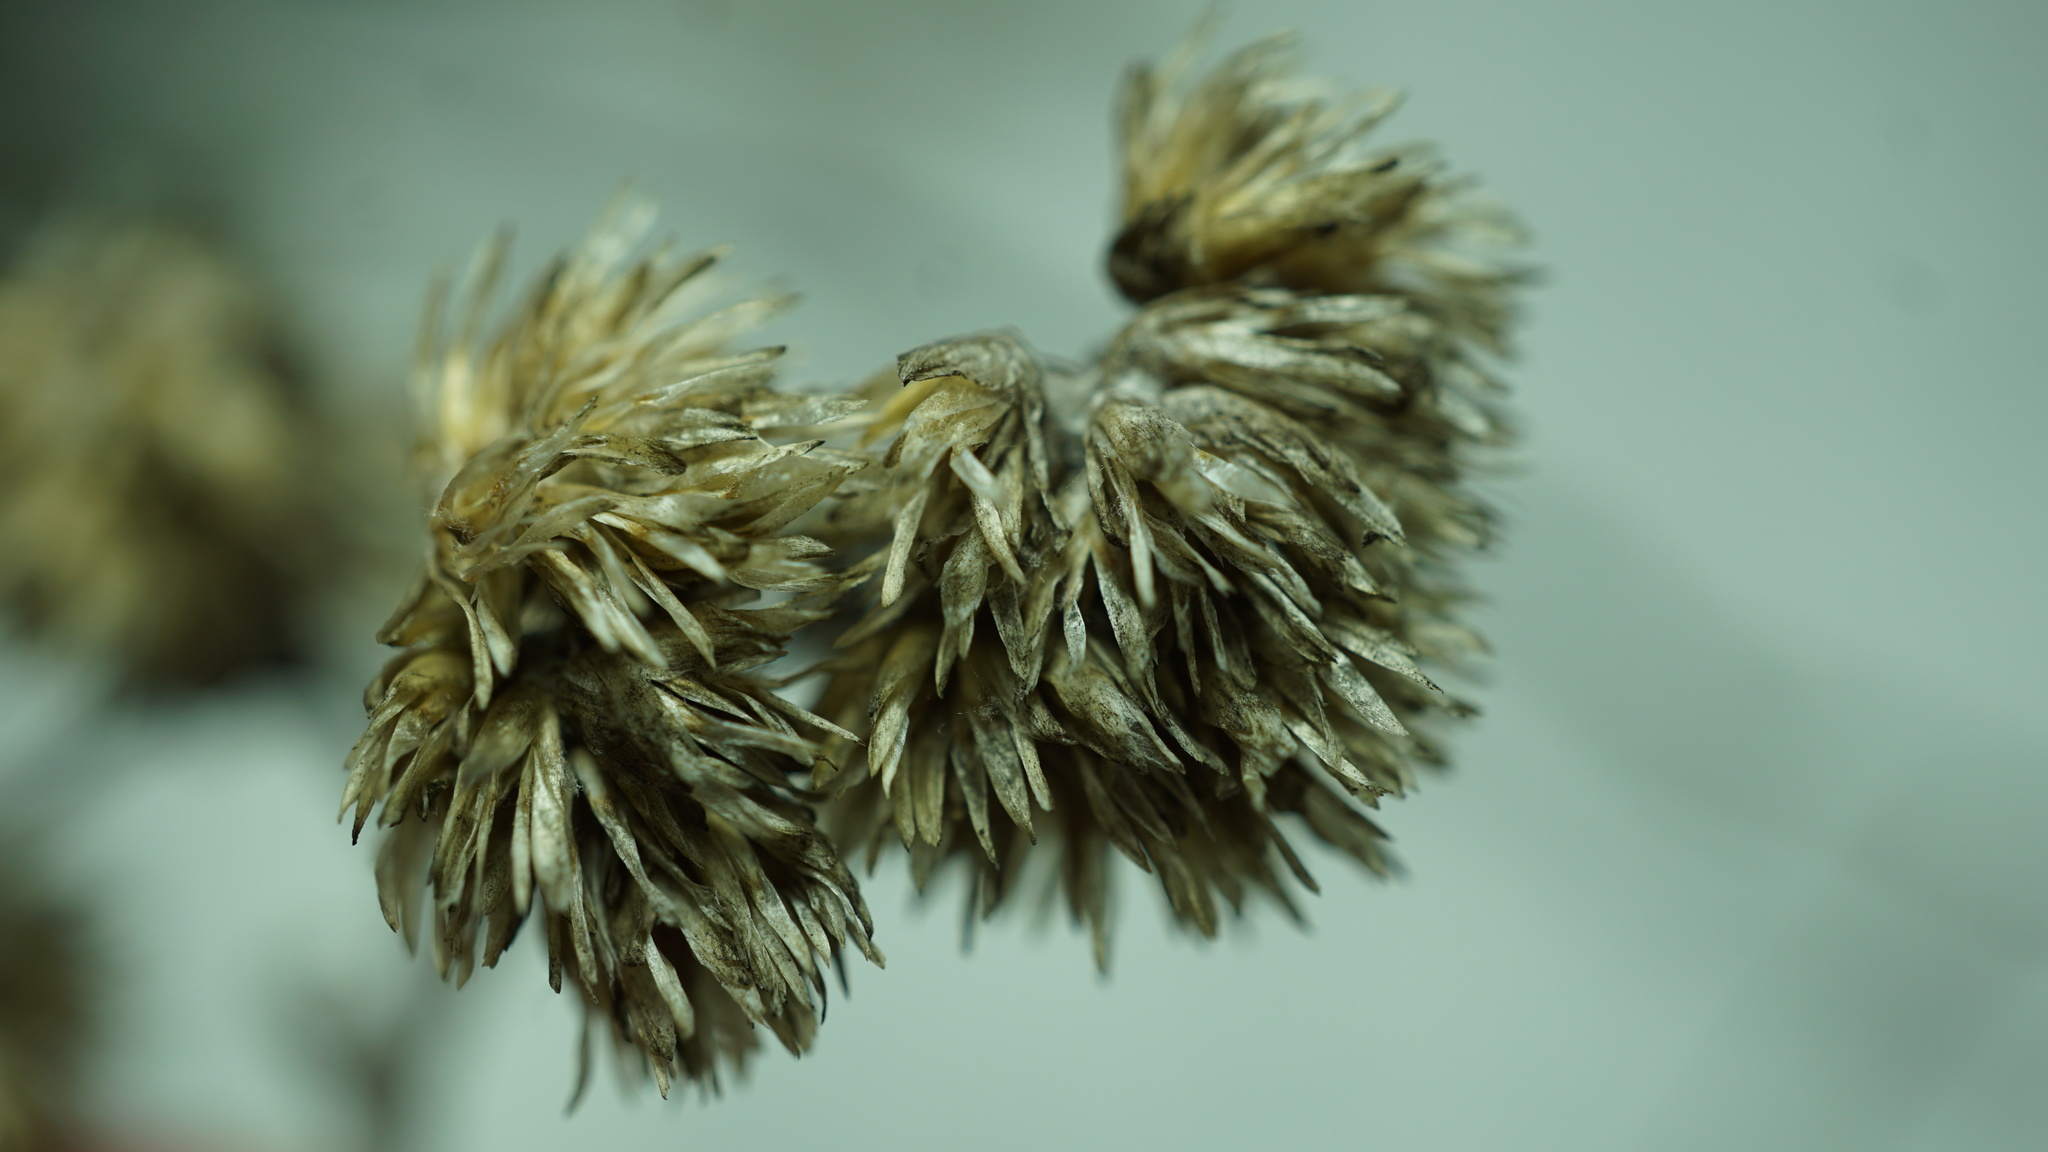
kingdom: Plantae
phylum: Tracheophyta
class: Magnoliopsida
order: Asterales
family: Asteraceae
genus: Achyrocline
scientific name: Achyrocline lehmannii
